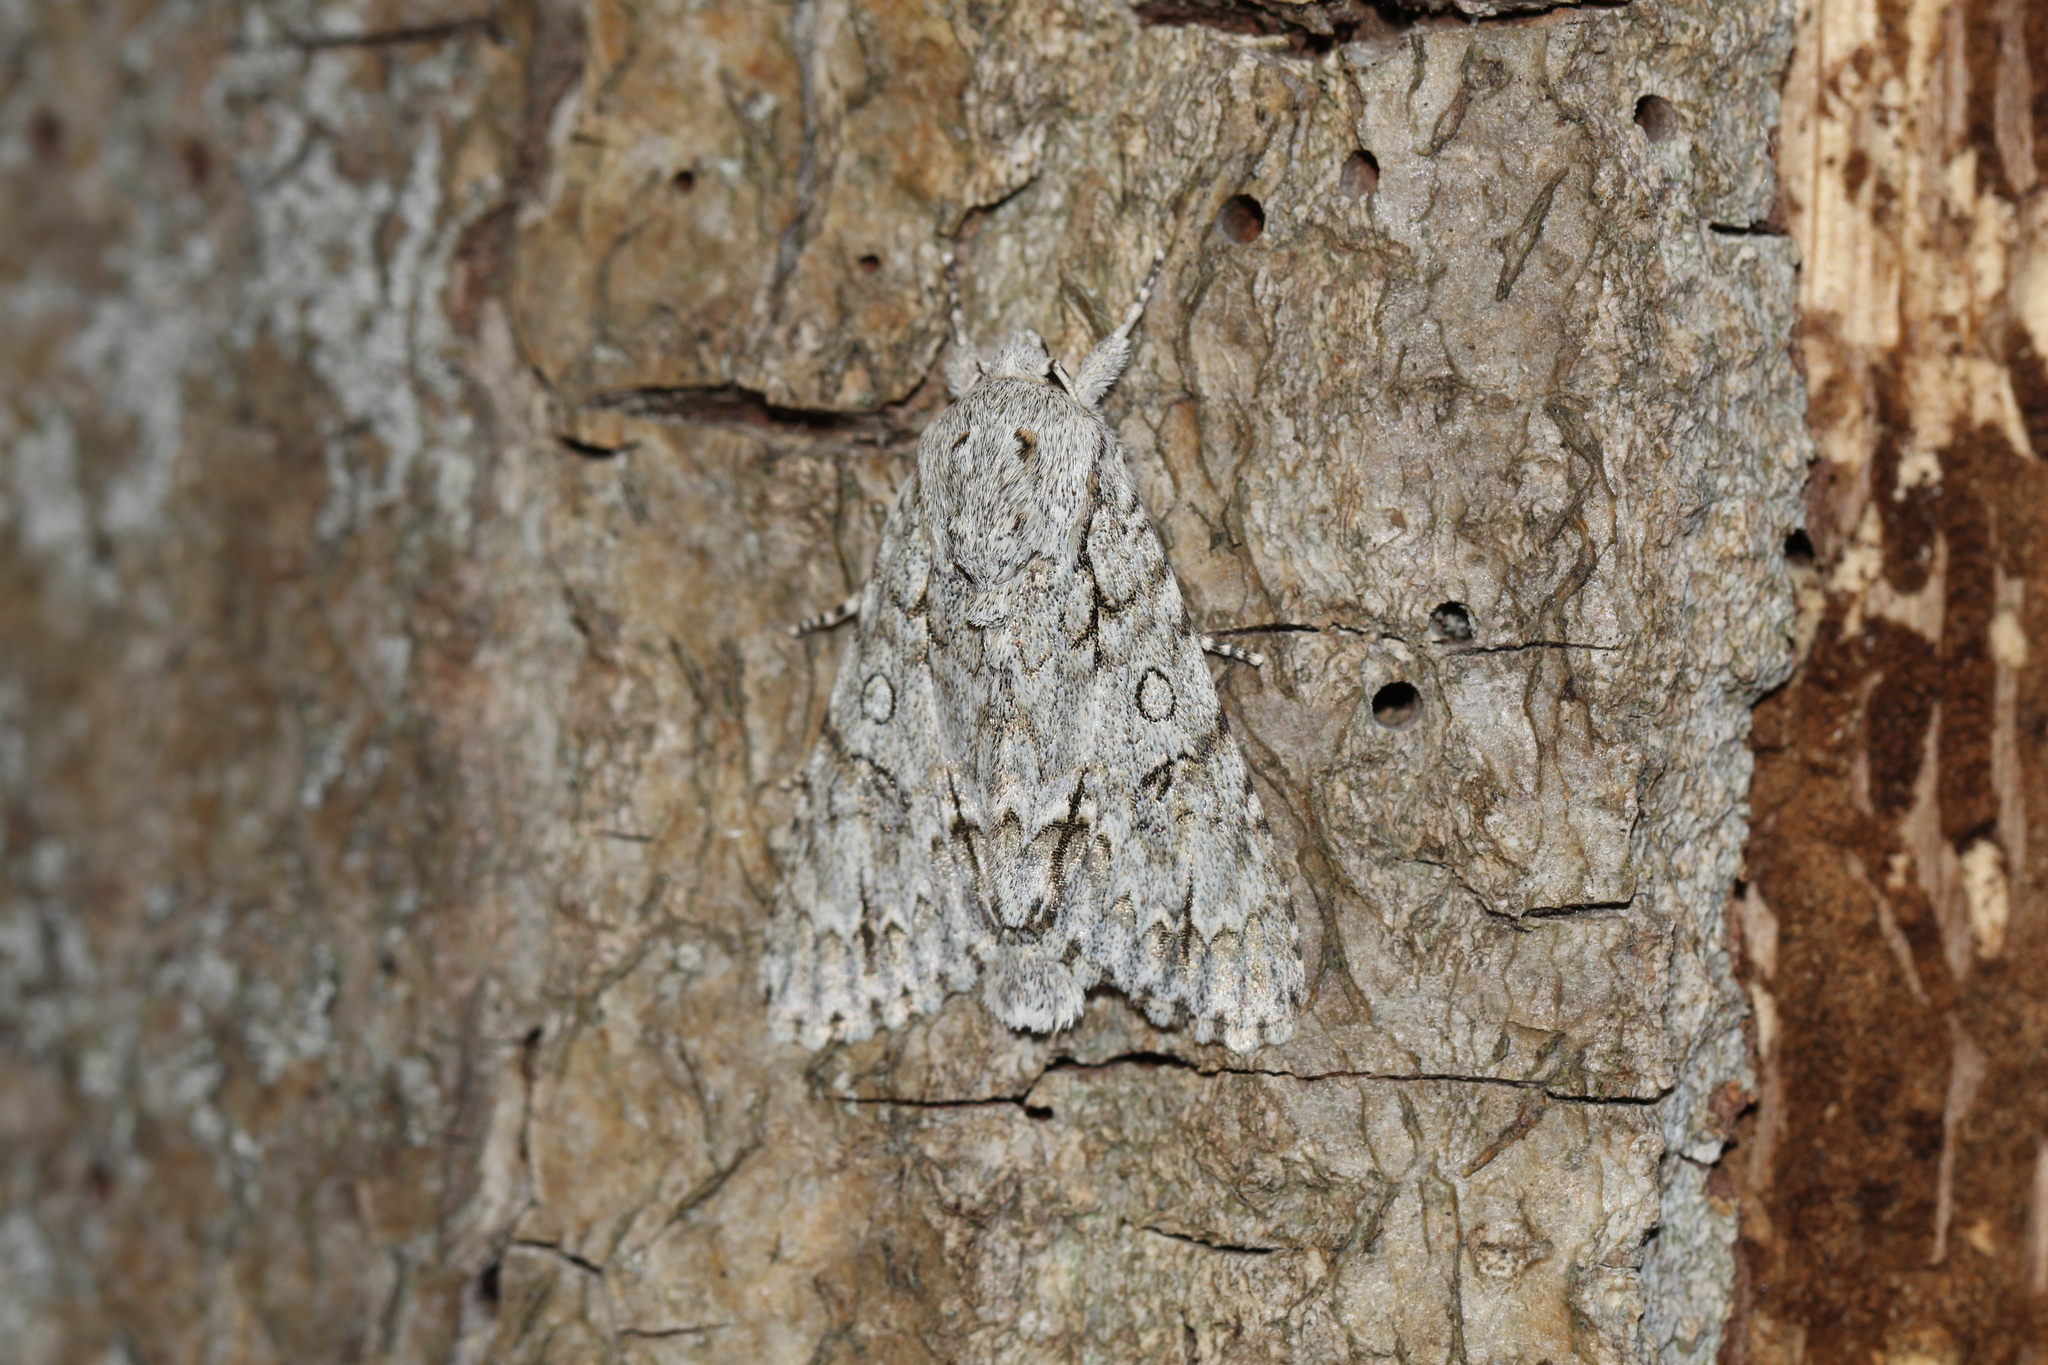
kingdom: Animalia
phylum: Arthropoda
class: Insecta
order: Lepidoptera
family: Noctuidae
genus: Acronicta
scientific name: Acronicta aceris
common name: Sycamore
